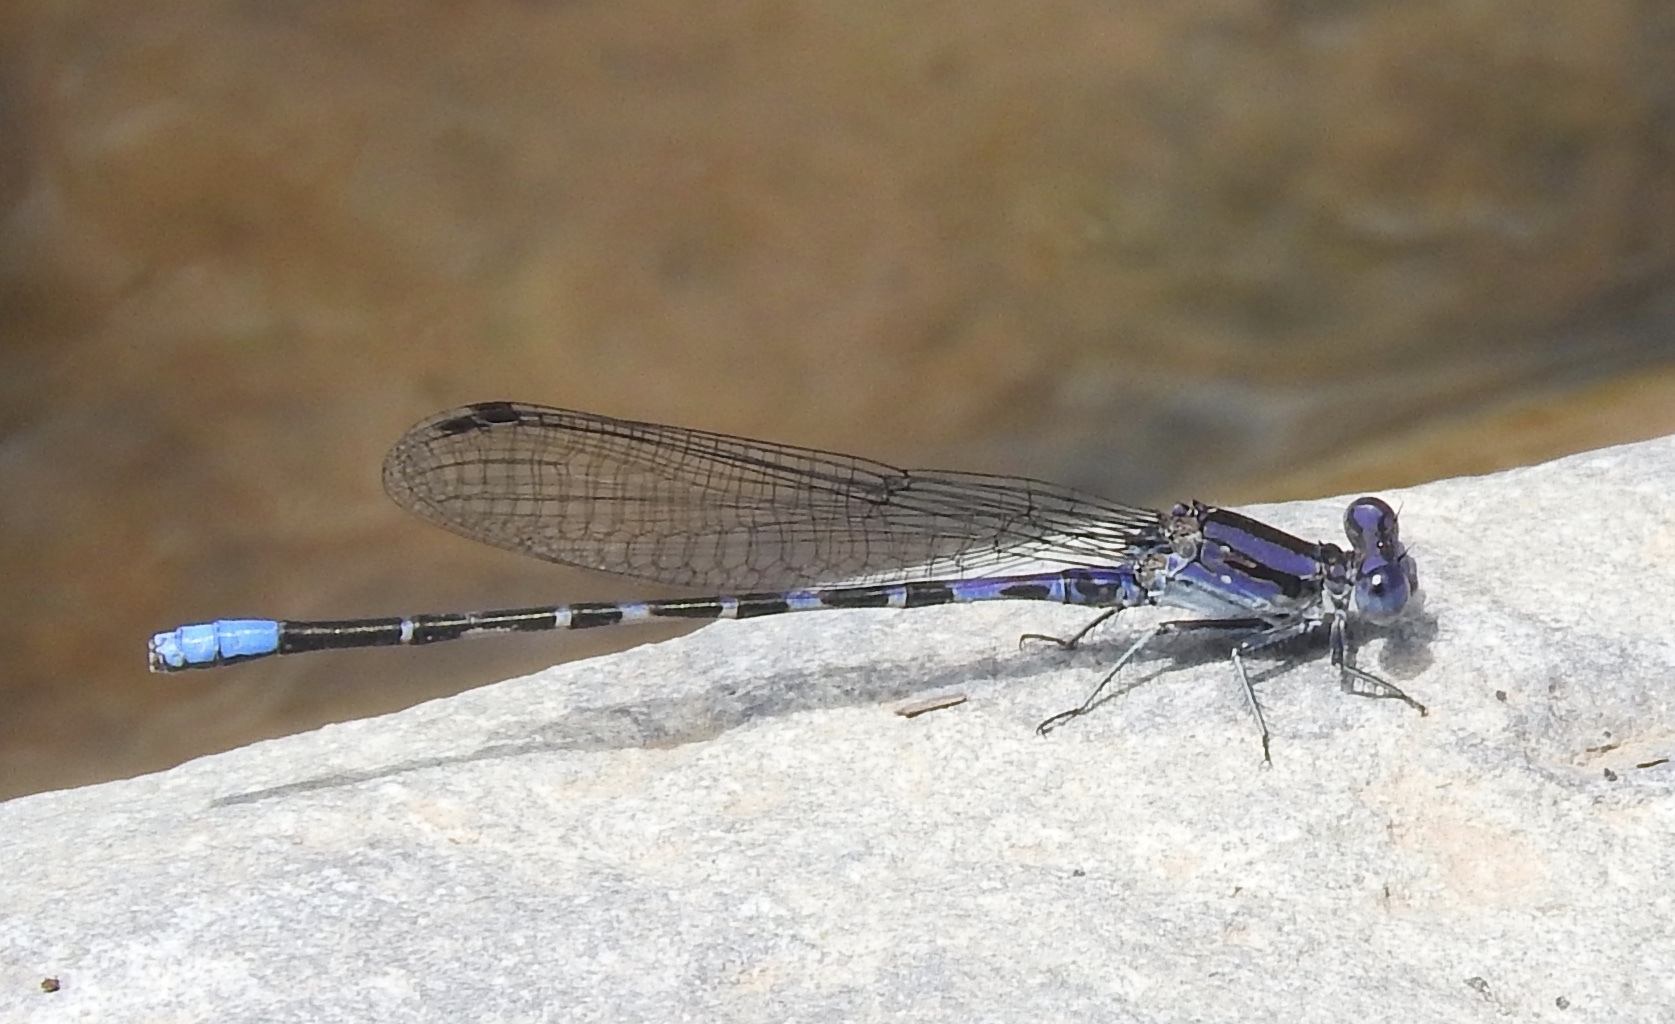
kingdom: Animalia
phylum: Arthropoda
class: Insecta
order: Odonata
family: Coenagrionidae
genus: Argia
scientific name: Argia immunda
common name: Kiowa dancer
